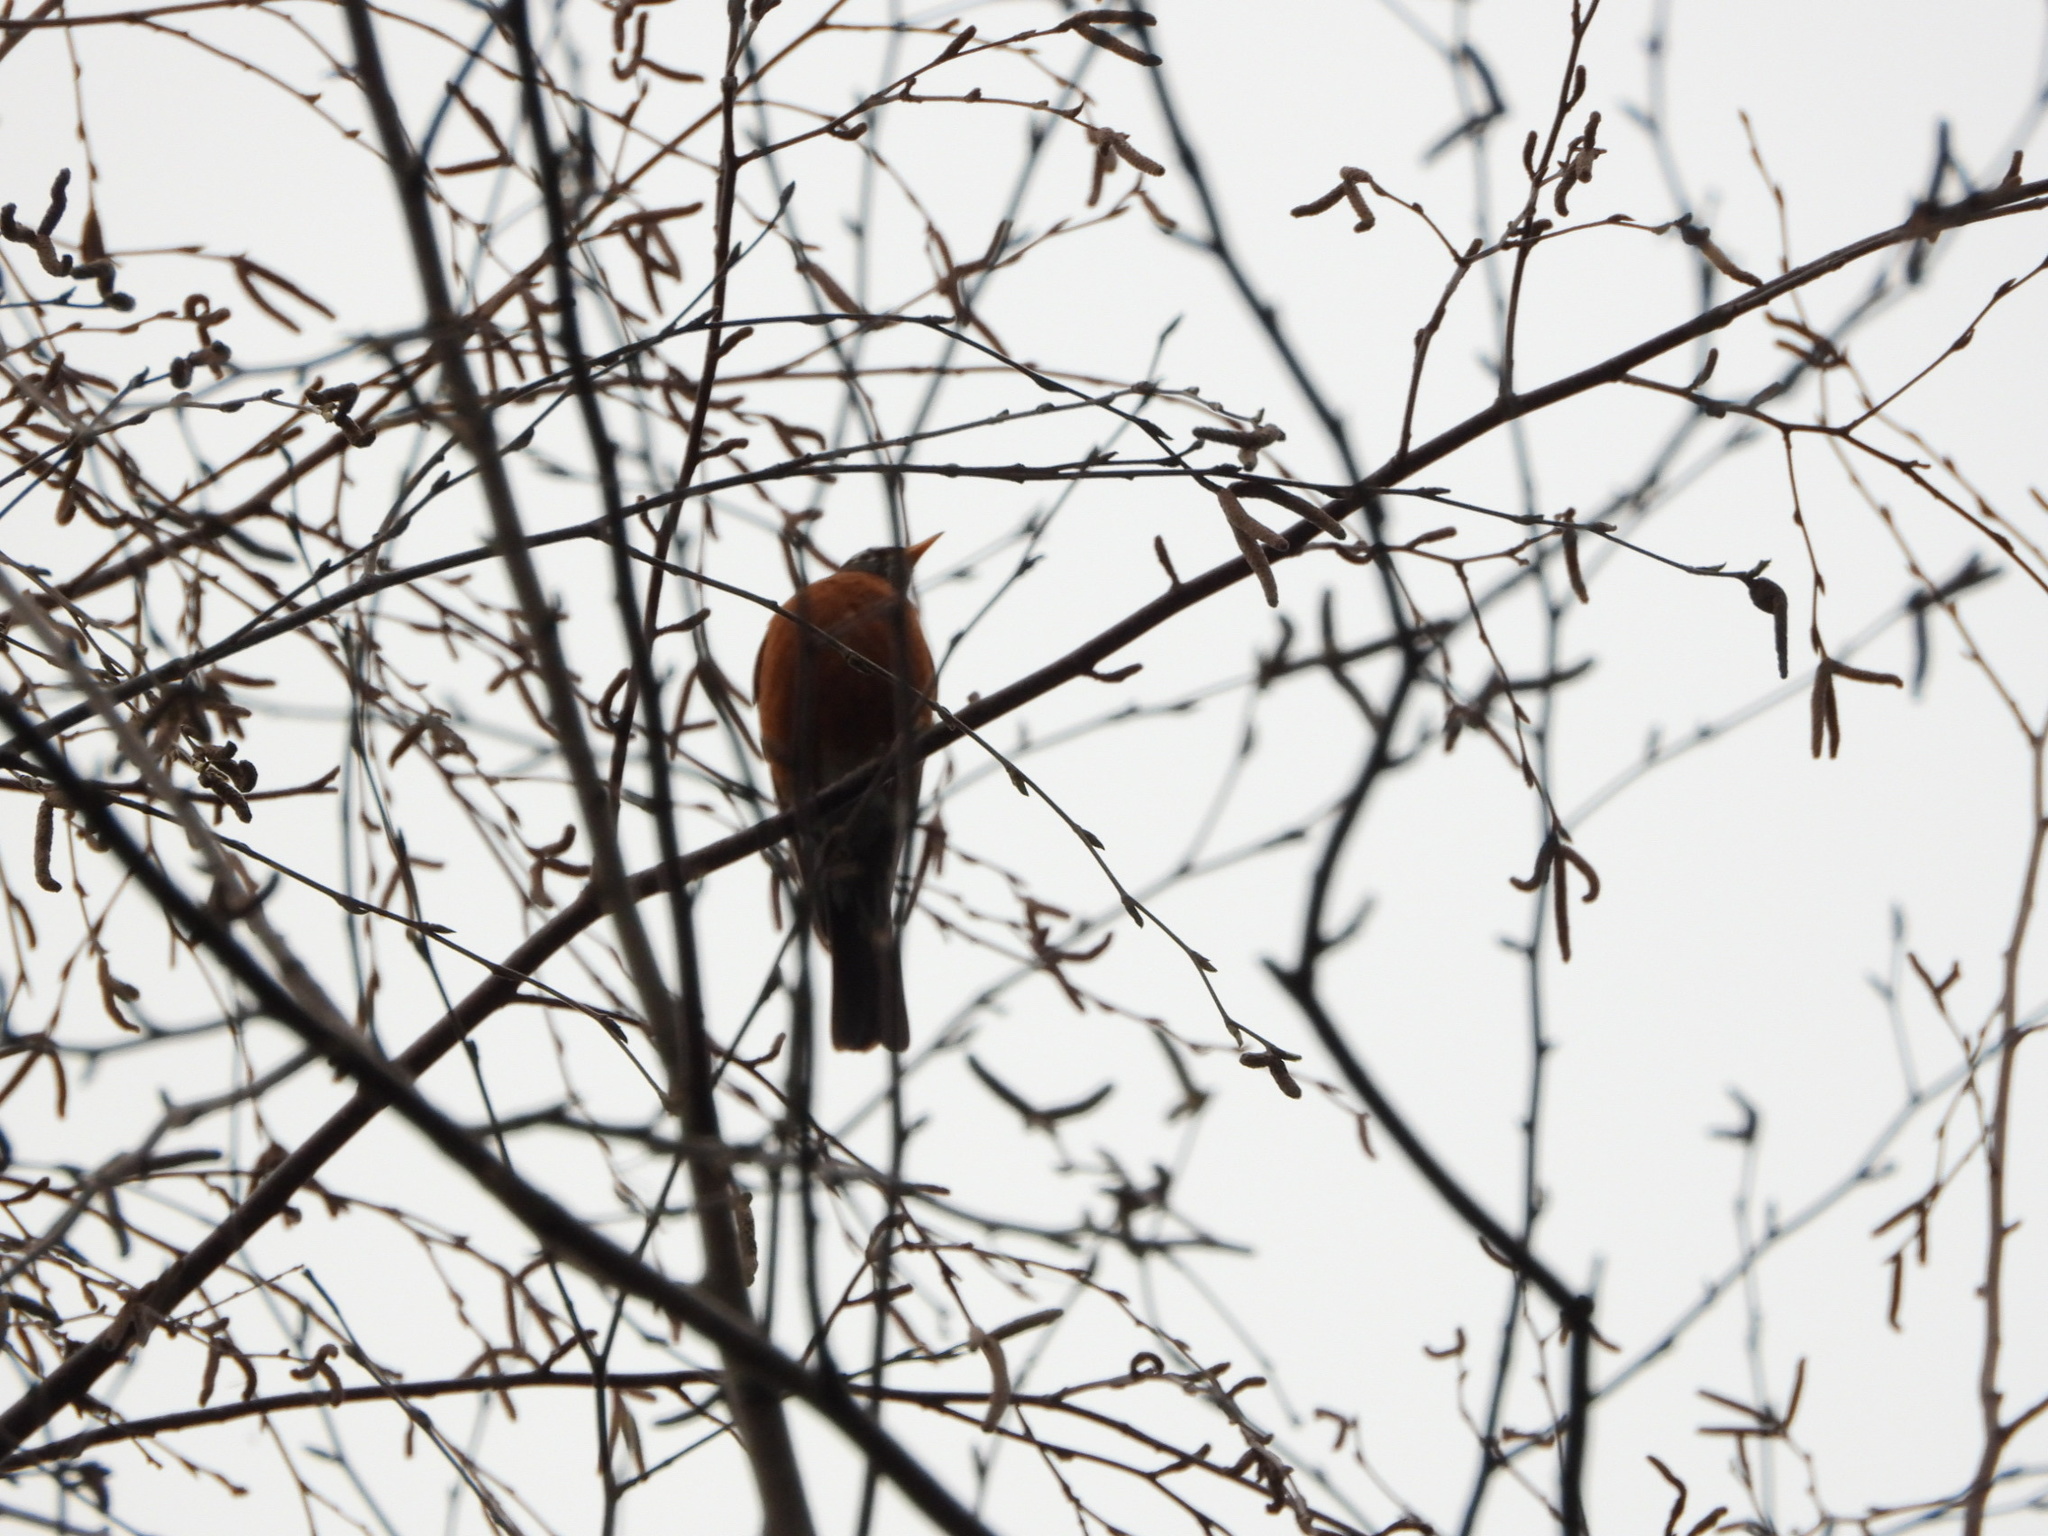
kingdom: Animalia
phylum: Chordata
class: Aves
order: Passeriformes
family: Turdidae
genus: Turdus
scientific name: Turdus migratorius
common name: American robin
